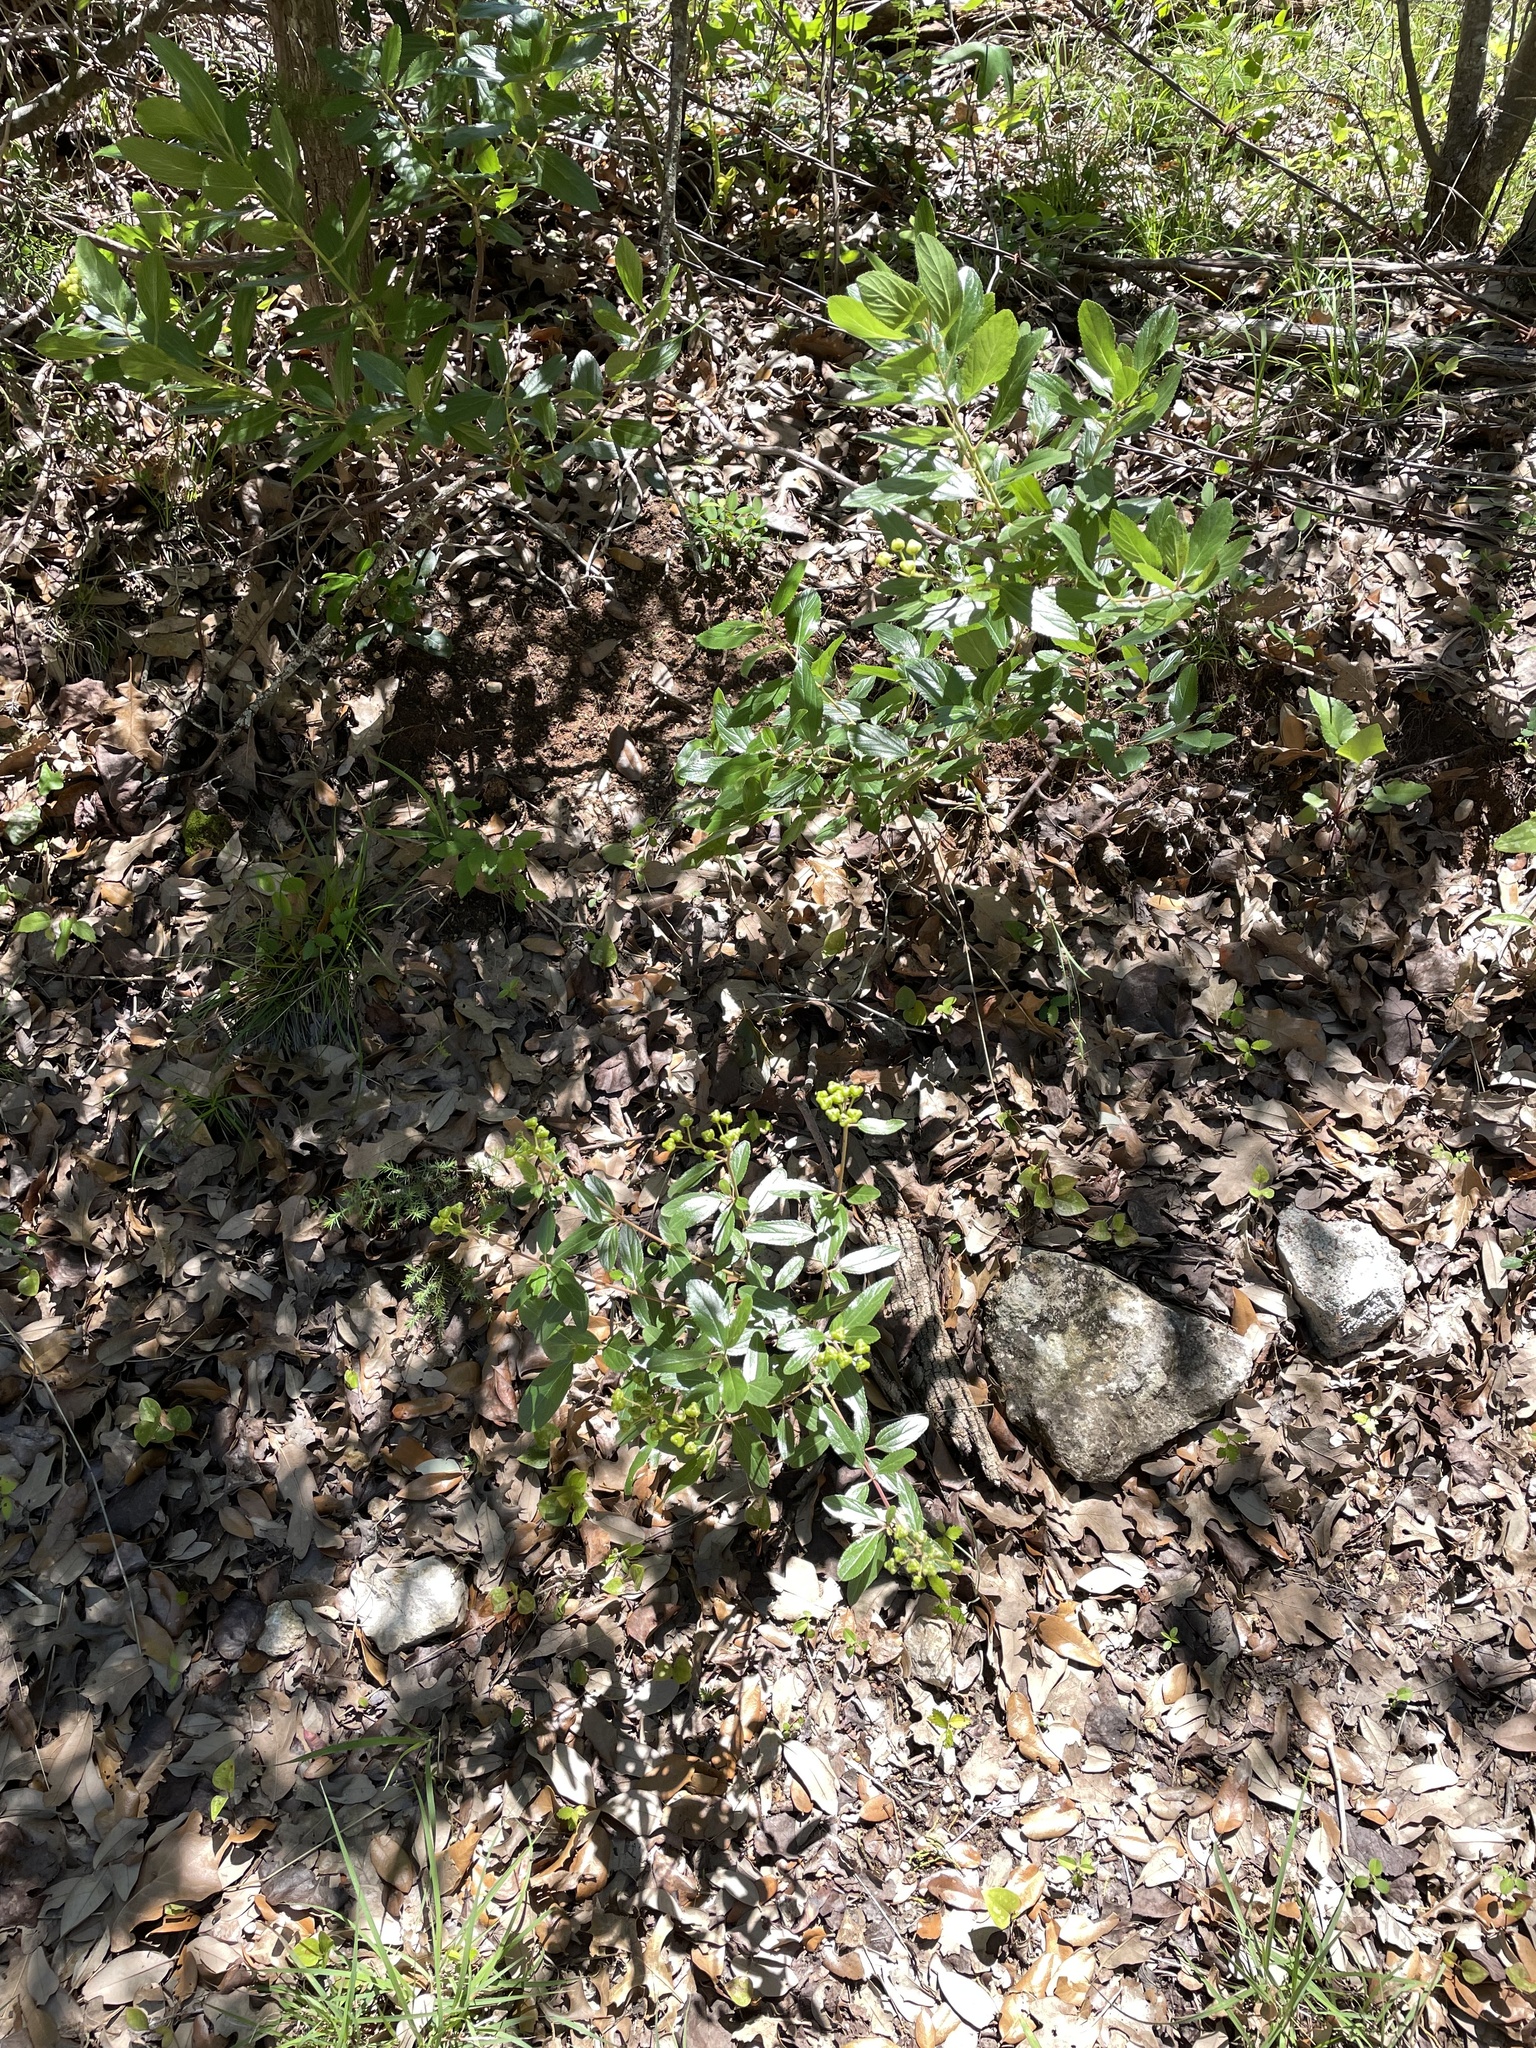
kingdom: Plantae
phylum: Tracheophyta
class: Magnoliopsida
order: Rosales
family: Rhamnaceae
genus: Ceanothus
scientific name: Ceanothus herbaceus
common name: Inland ceanothus
